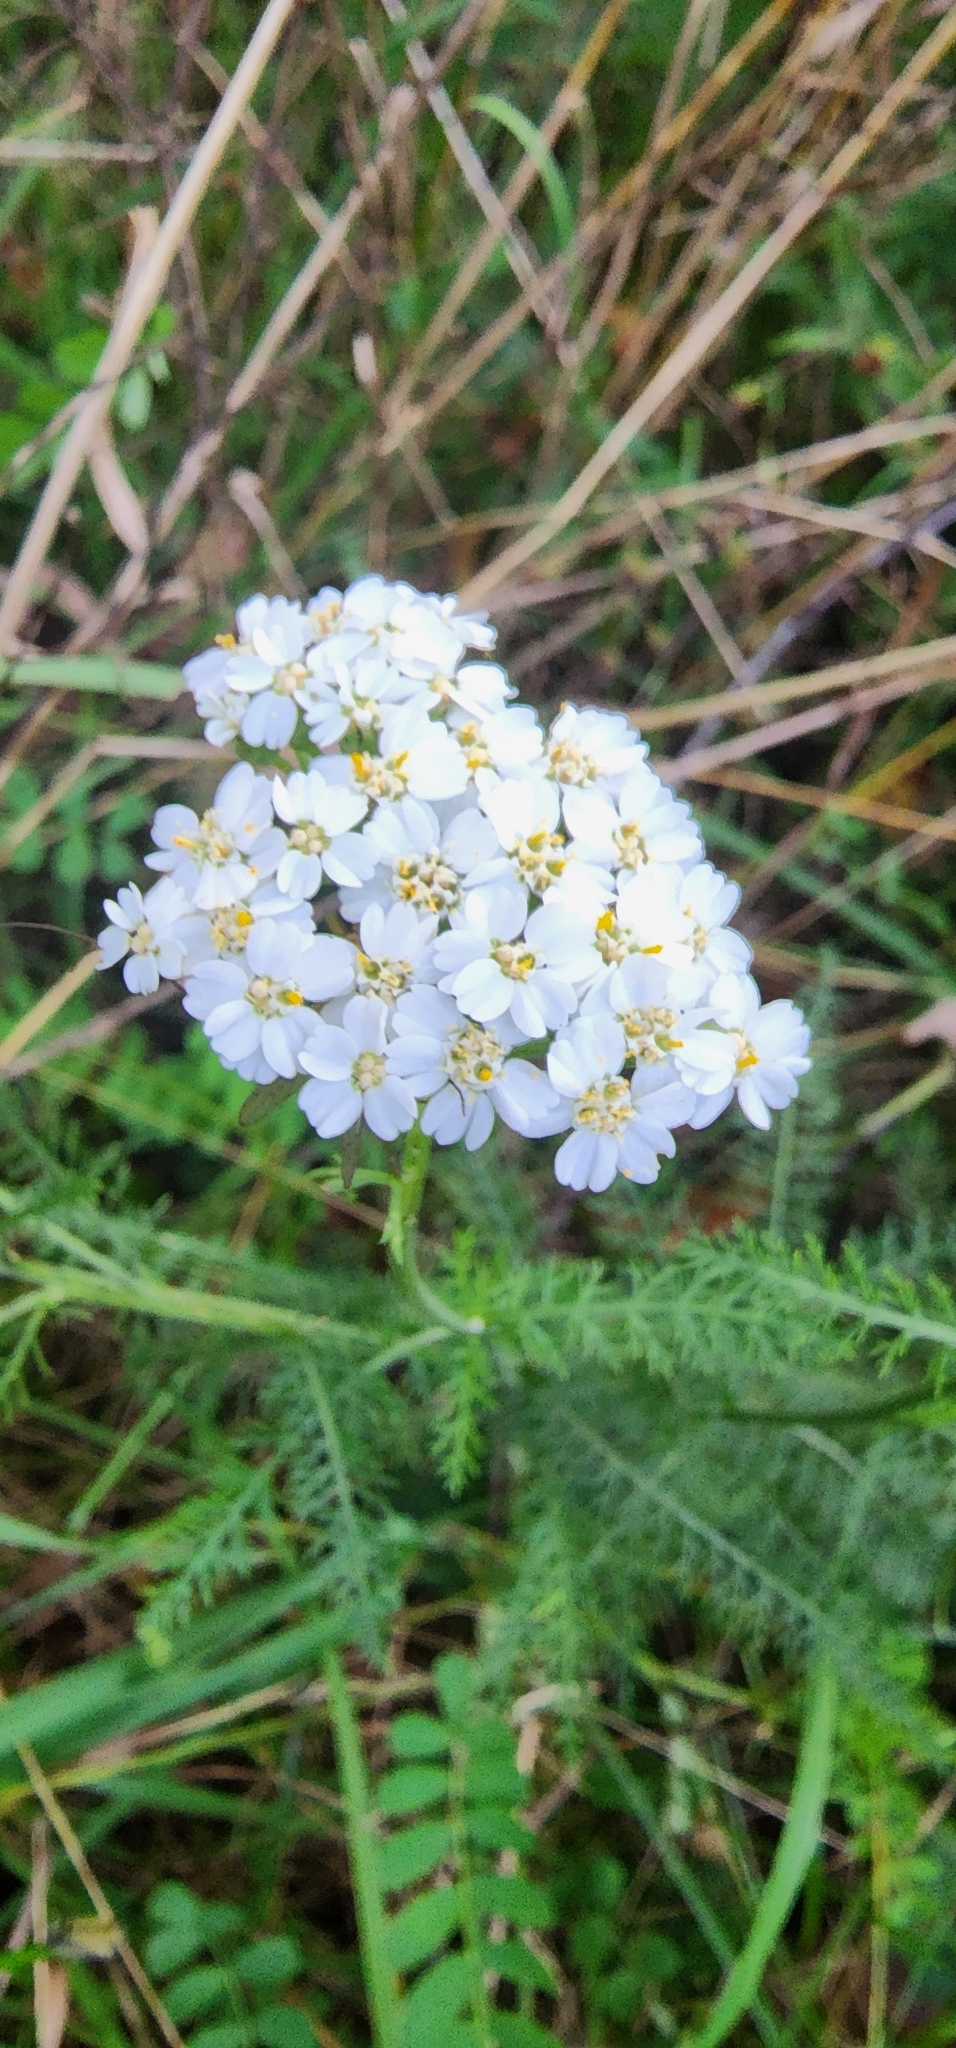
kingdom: Plantae
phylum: Tracheophyta
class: Magnoliopsida
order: Asterales
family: Asteraceae
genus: Achillea
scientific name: Achillea millefolium
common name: Yarrow
